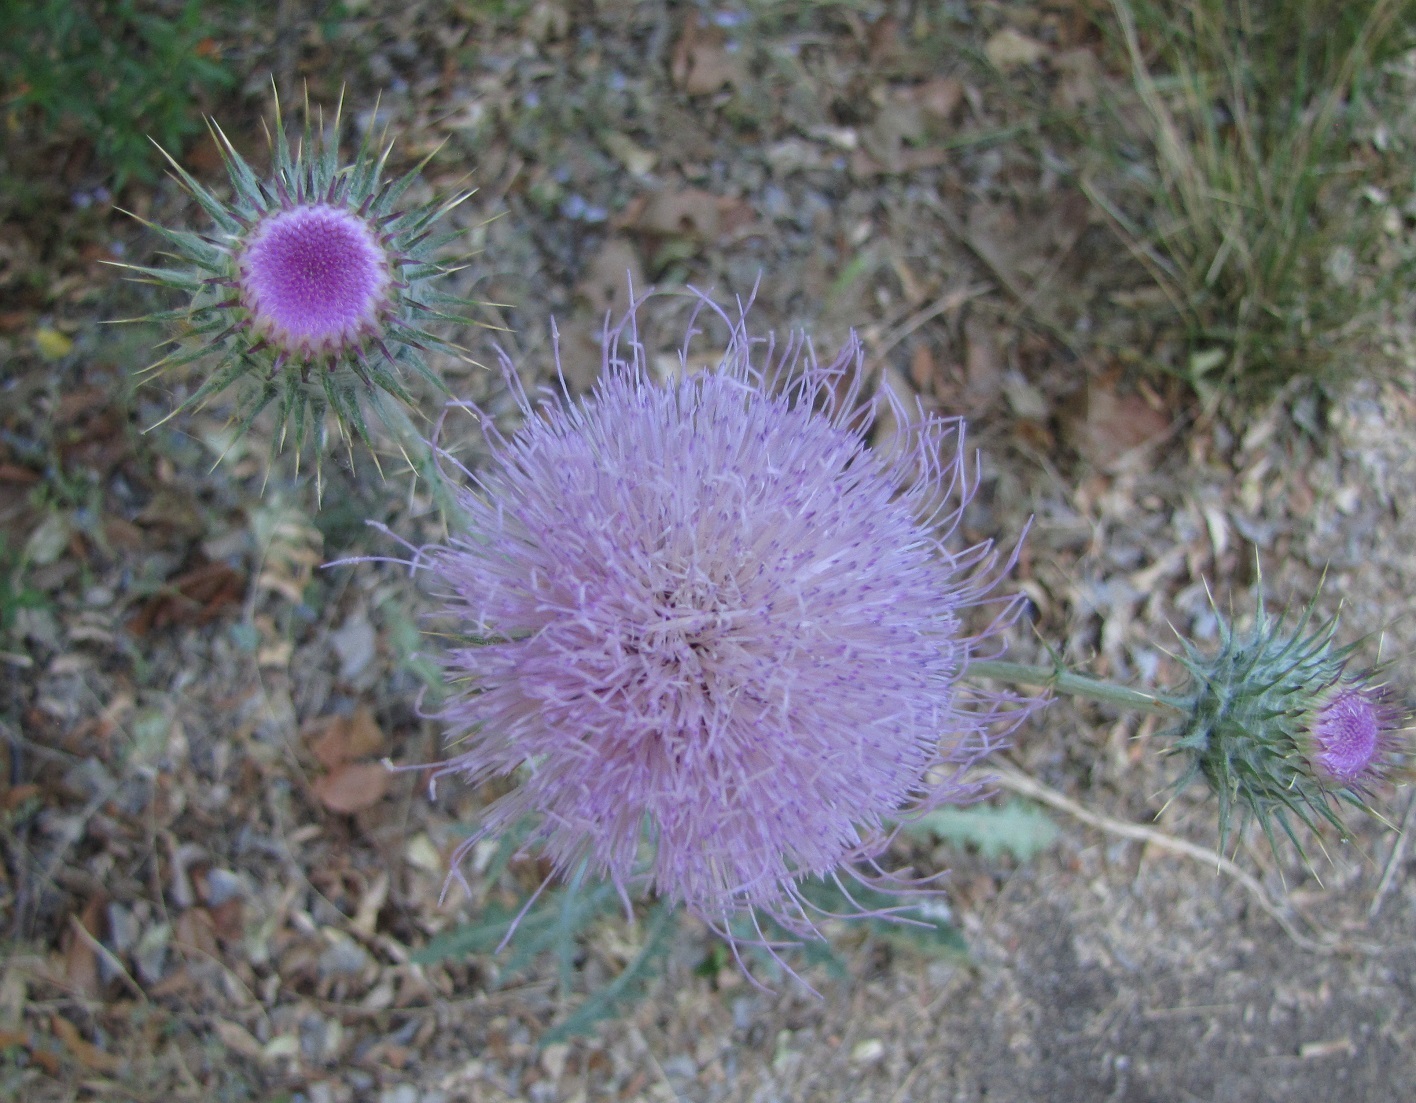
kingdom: Plantae
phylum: Tracheophyta
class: Magnoliopsida
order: Asterales
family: Asteraceae
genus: Cirsium
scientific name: Cirsium neomexicanum
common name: New mexico thistle
